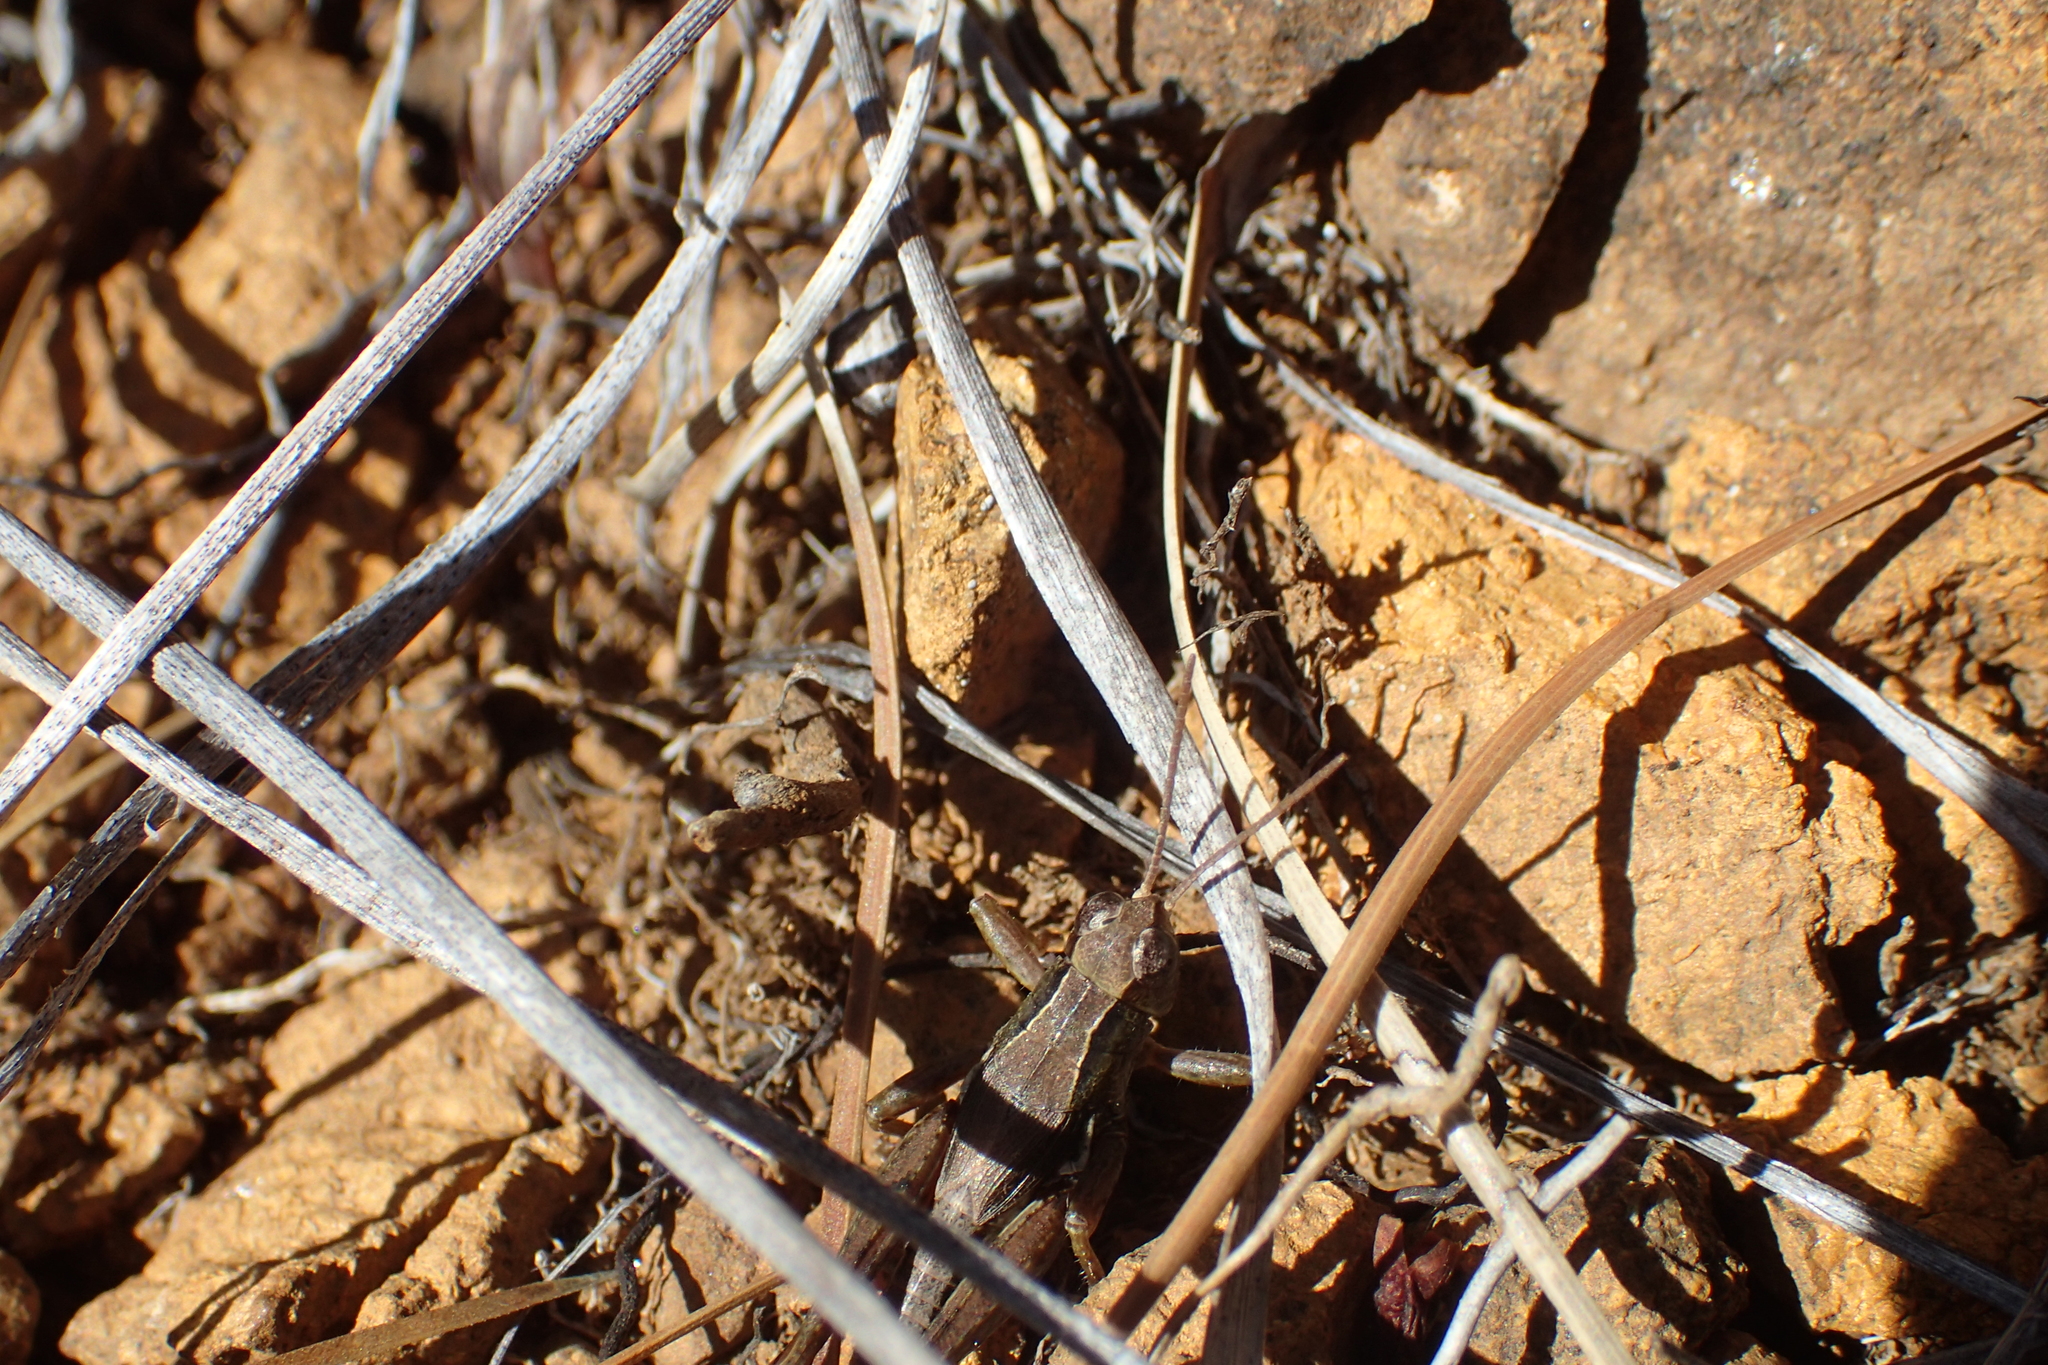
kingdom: Animalia
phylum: Arthropoda
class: Insecta
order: Orthoptera
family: Acrididae
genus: Phaulacridium
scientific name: Phaulacridium marginale
